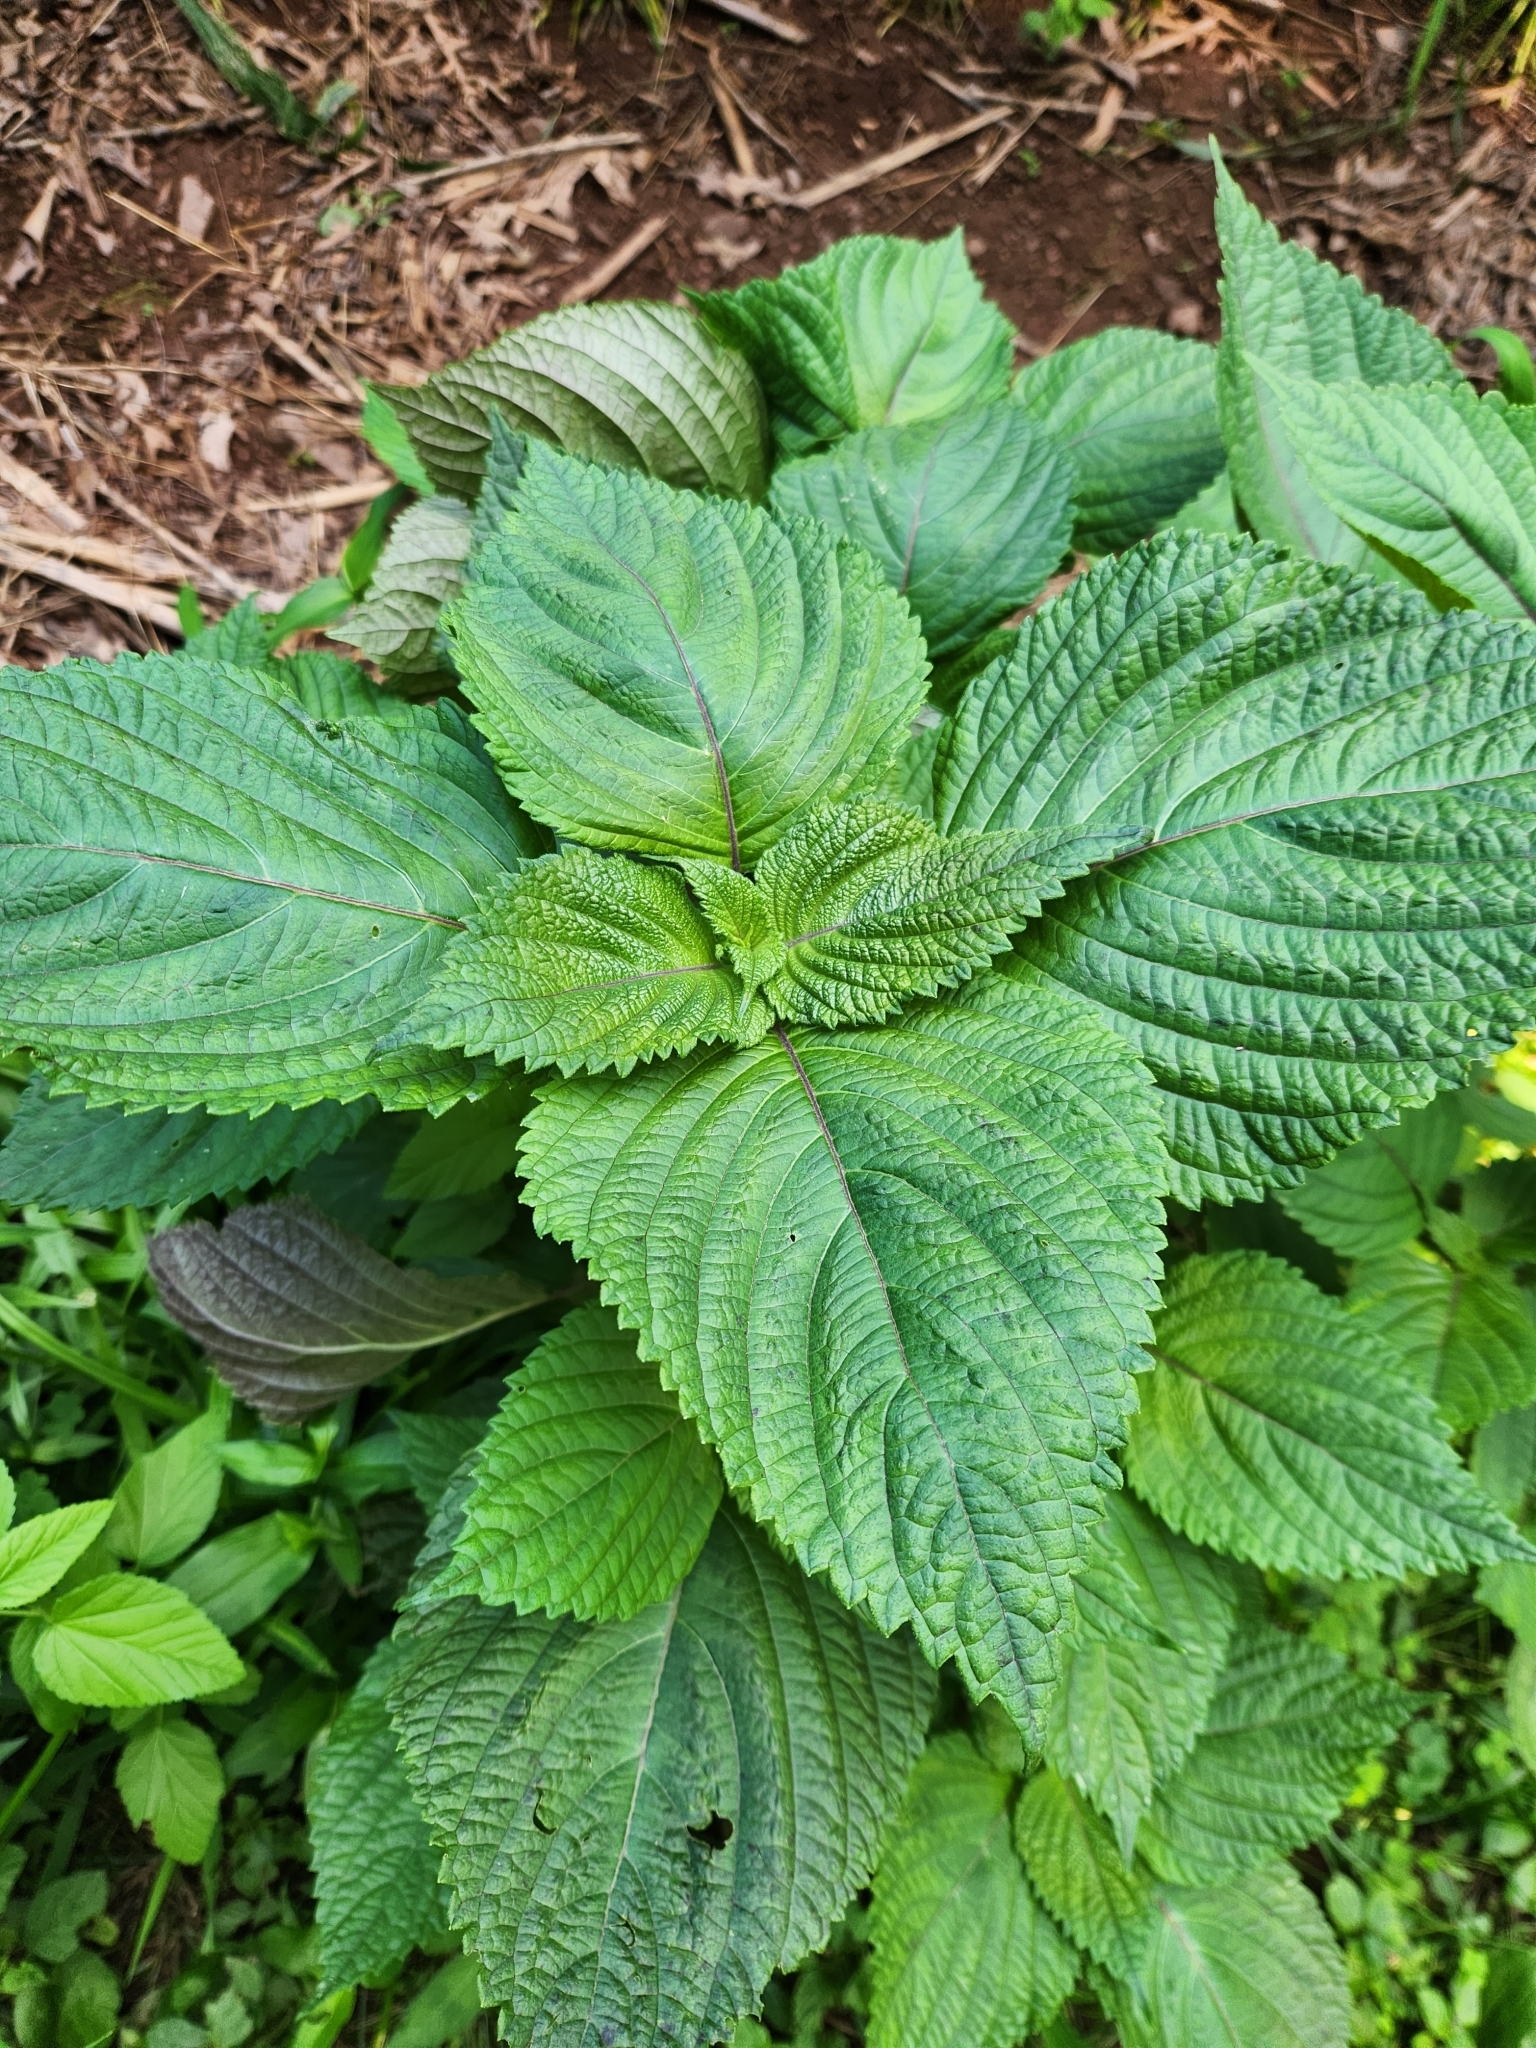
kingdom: Plantae
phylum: Tracheophyta
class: Magnoliopsida
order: Lamiales
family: Lamiaceae
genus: Perilla
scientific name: Perilla frutescens
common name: Perilla
